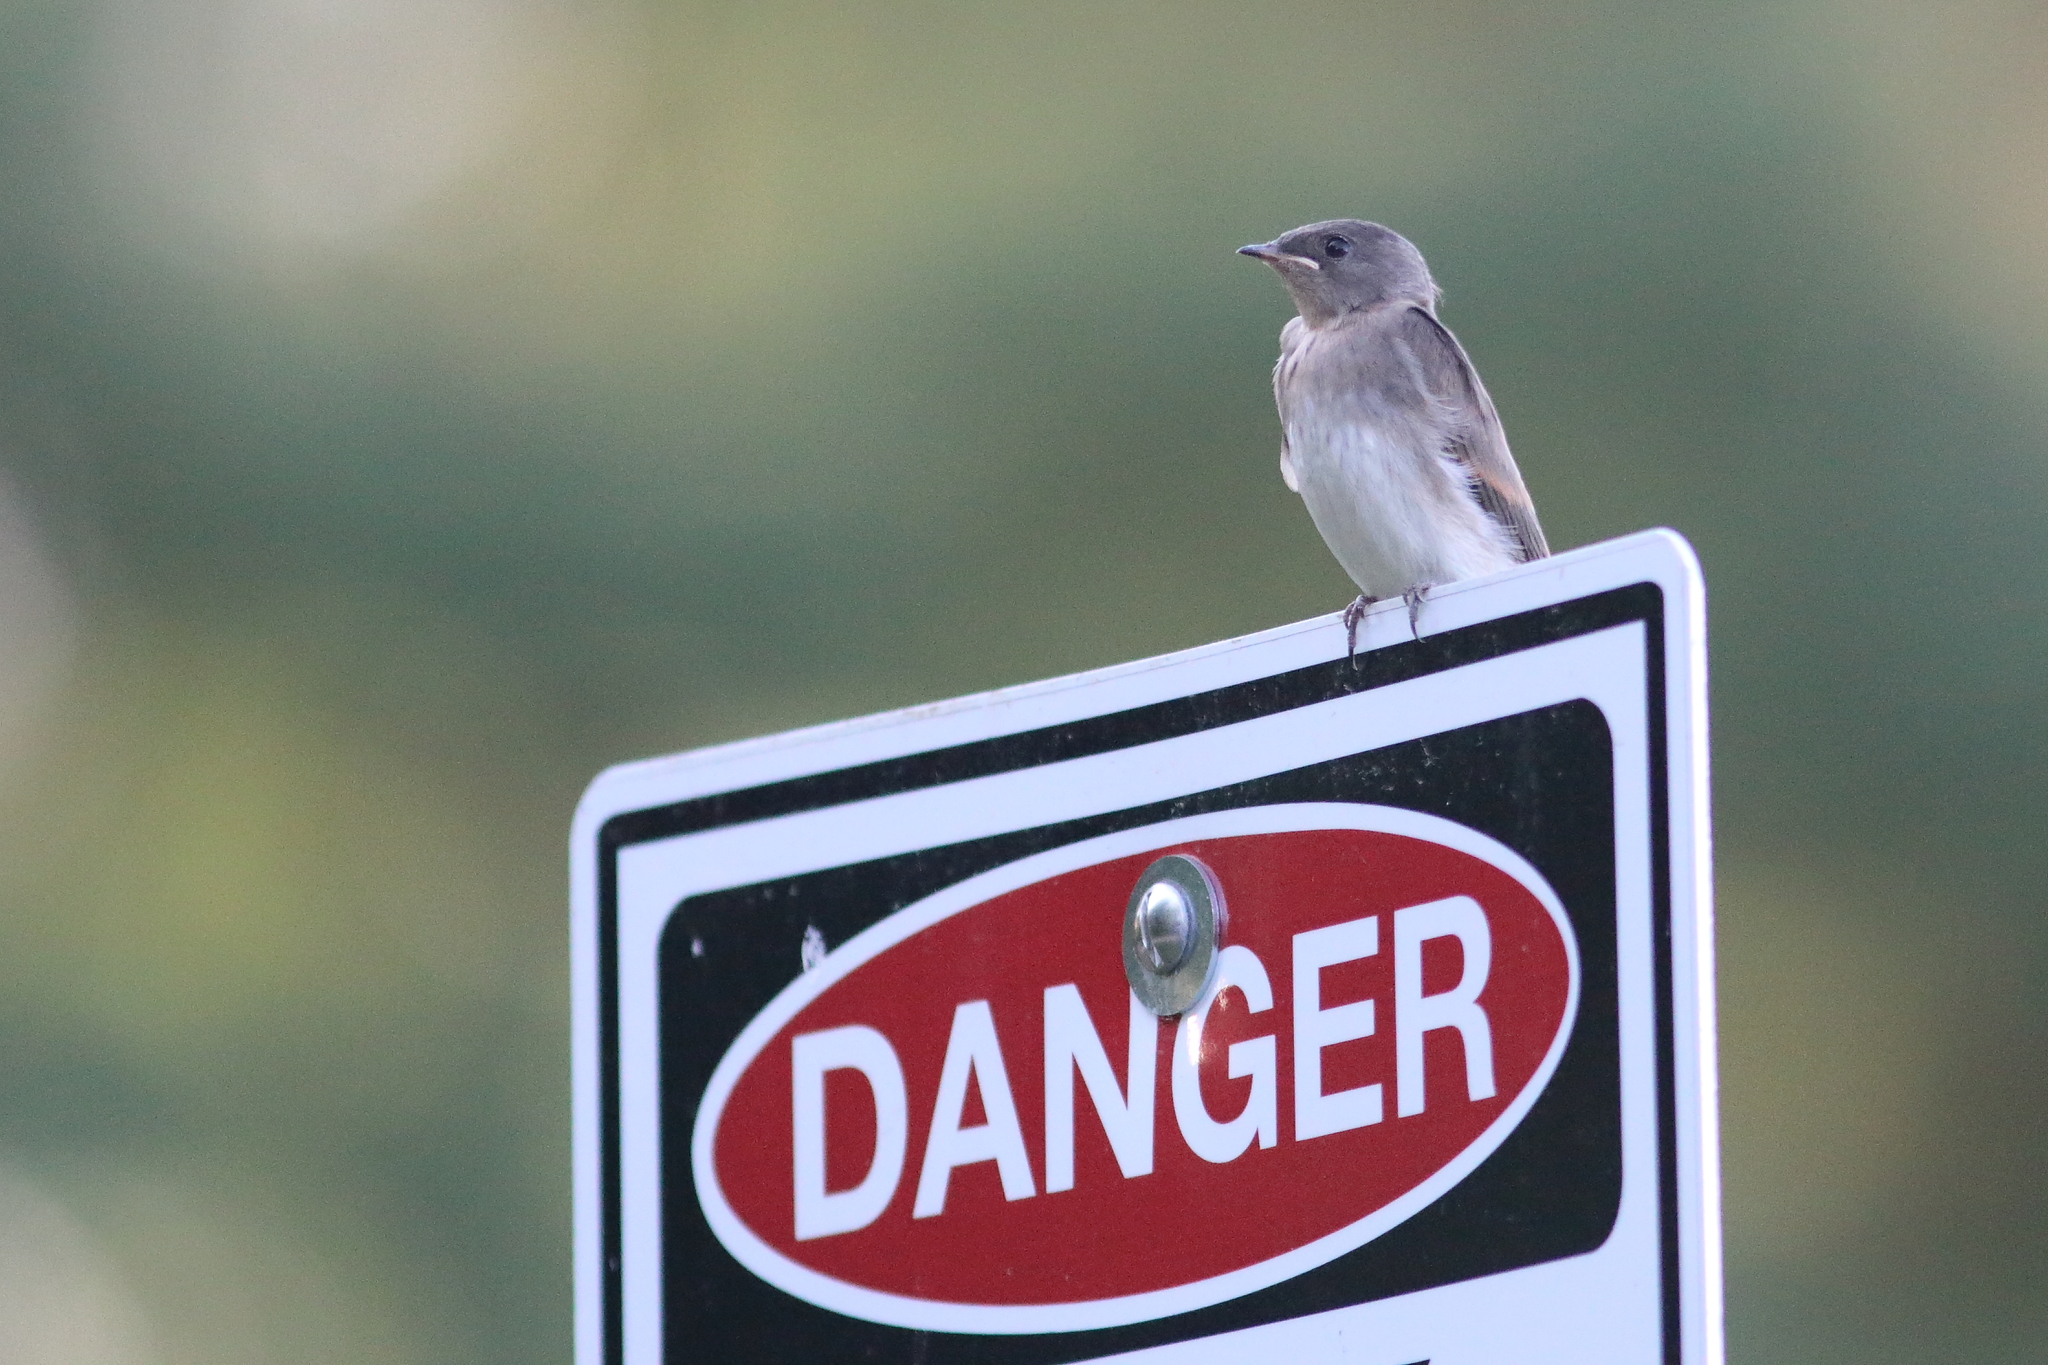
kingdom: Animalia
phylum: Chordata
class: Aves
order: Passeriformes
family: Hirundinidae
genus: Stelgidopteryx
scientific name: Stelgidopteryx serripennis
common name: Northern rough-winged swallow
